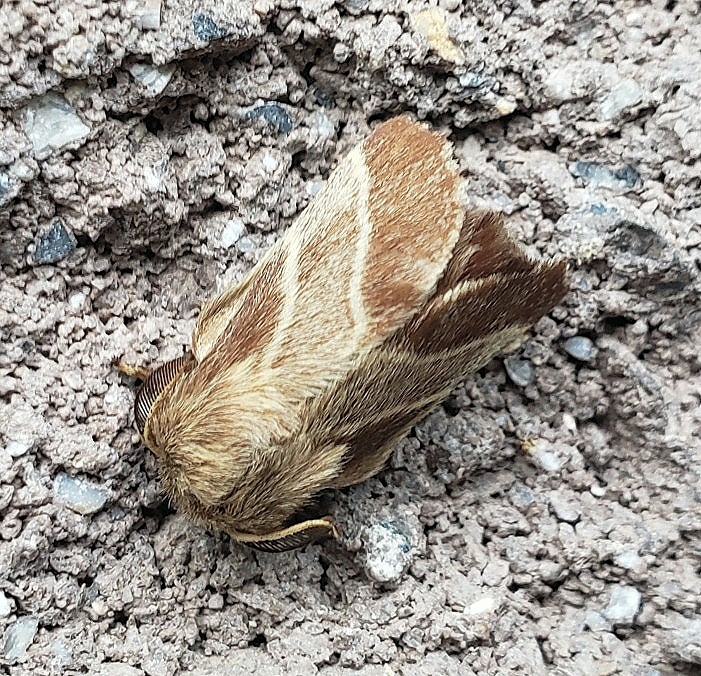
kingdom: Animalia
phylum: Arthropoda
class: Insecta
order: Lepidoptera
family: Lasiocampidae
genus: Malacosoma
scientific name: Malacosoma americana
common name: Eastern tent caterpillar moth
